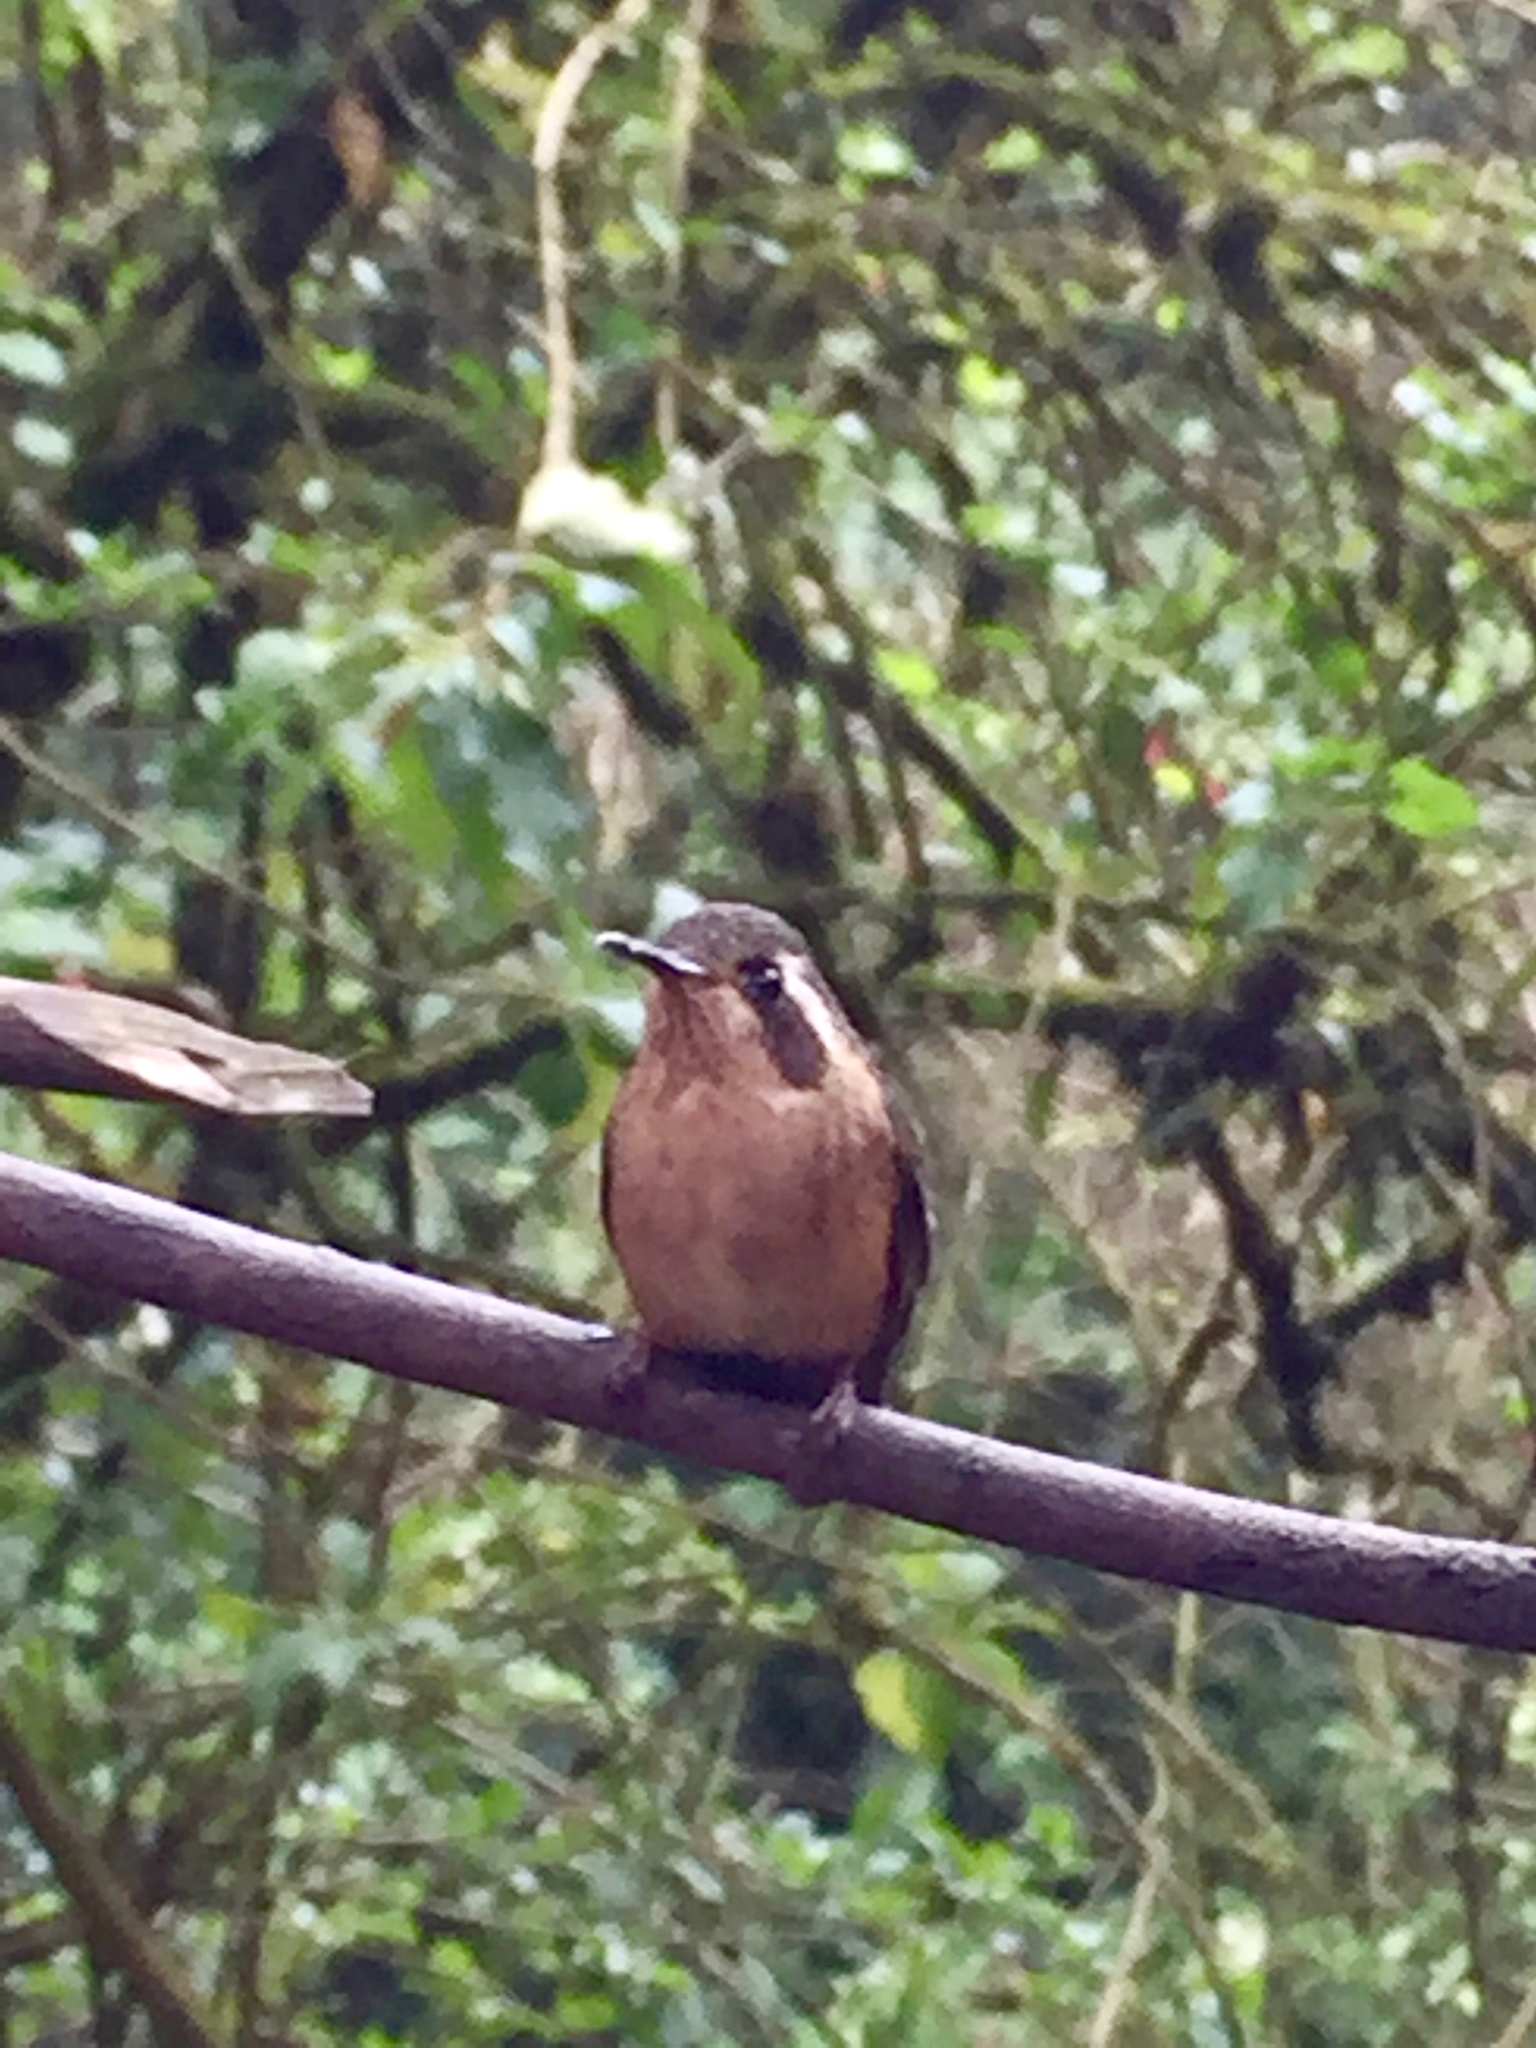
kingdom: Animalia
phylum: Chordata
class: Aves
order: Apodiformes
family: Trochilidae
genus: Adelomyia
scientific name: Adelomyia melanogenys
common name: Speckled hummingbird
